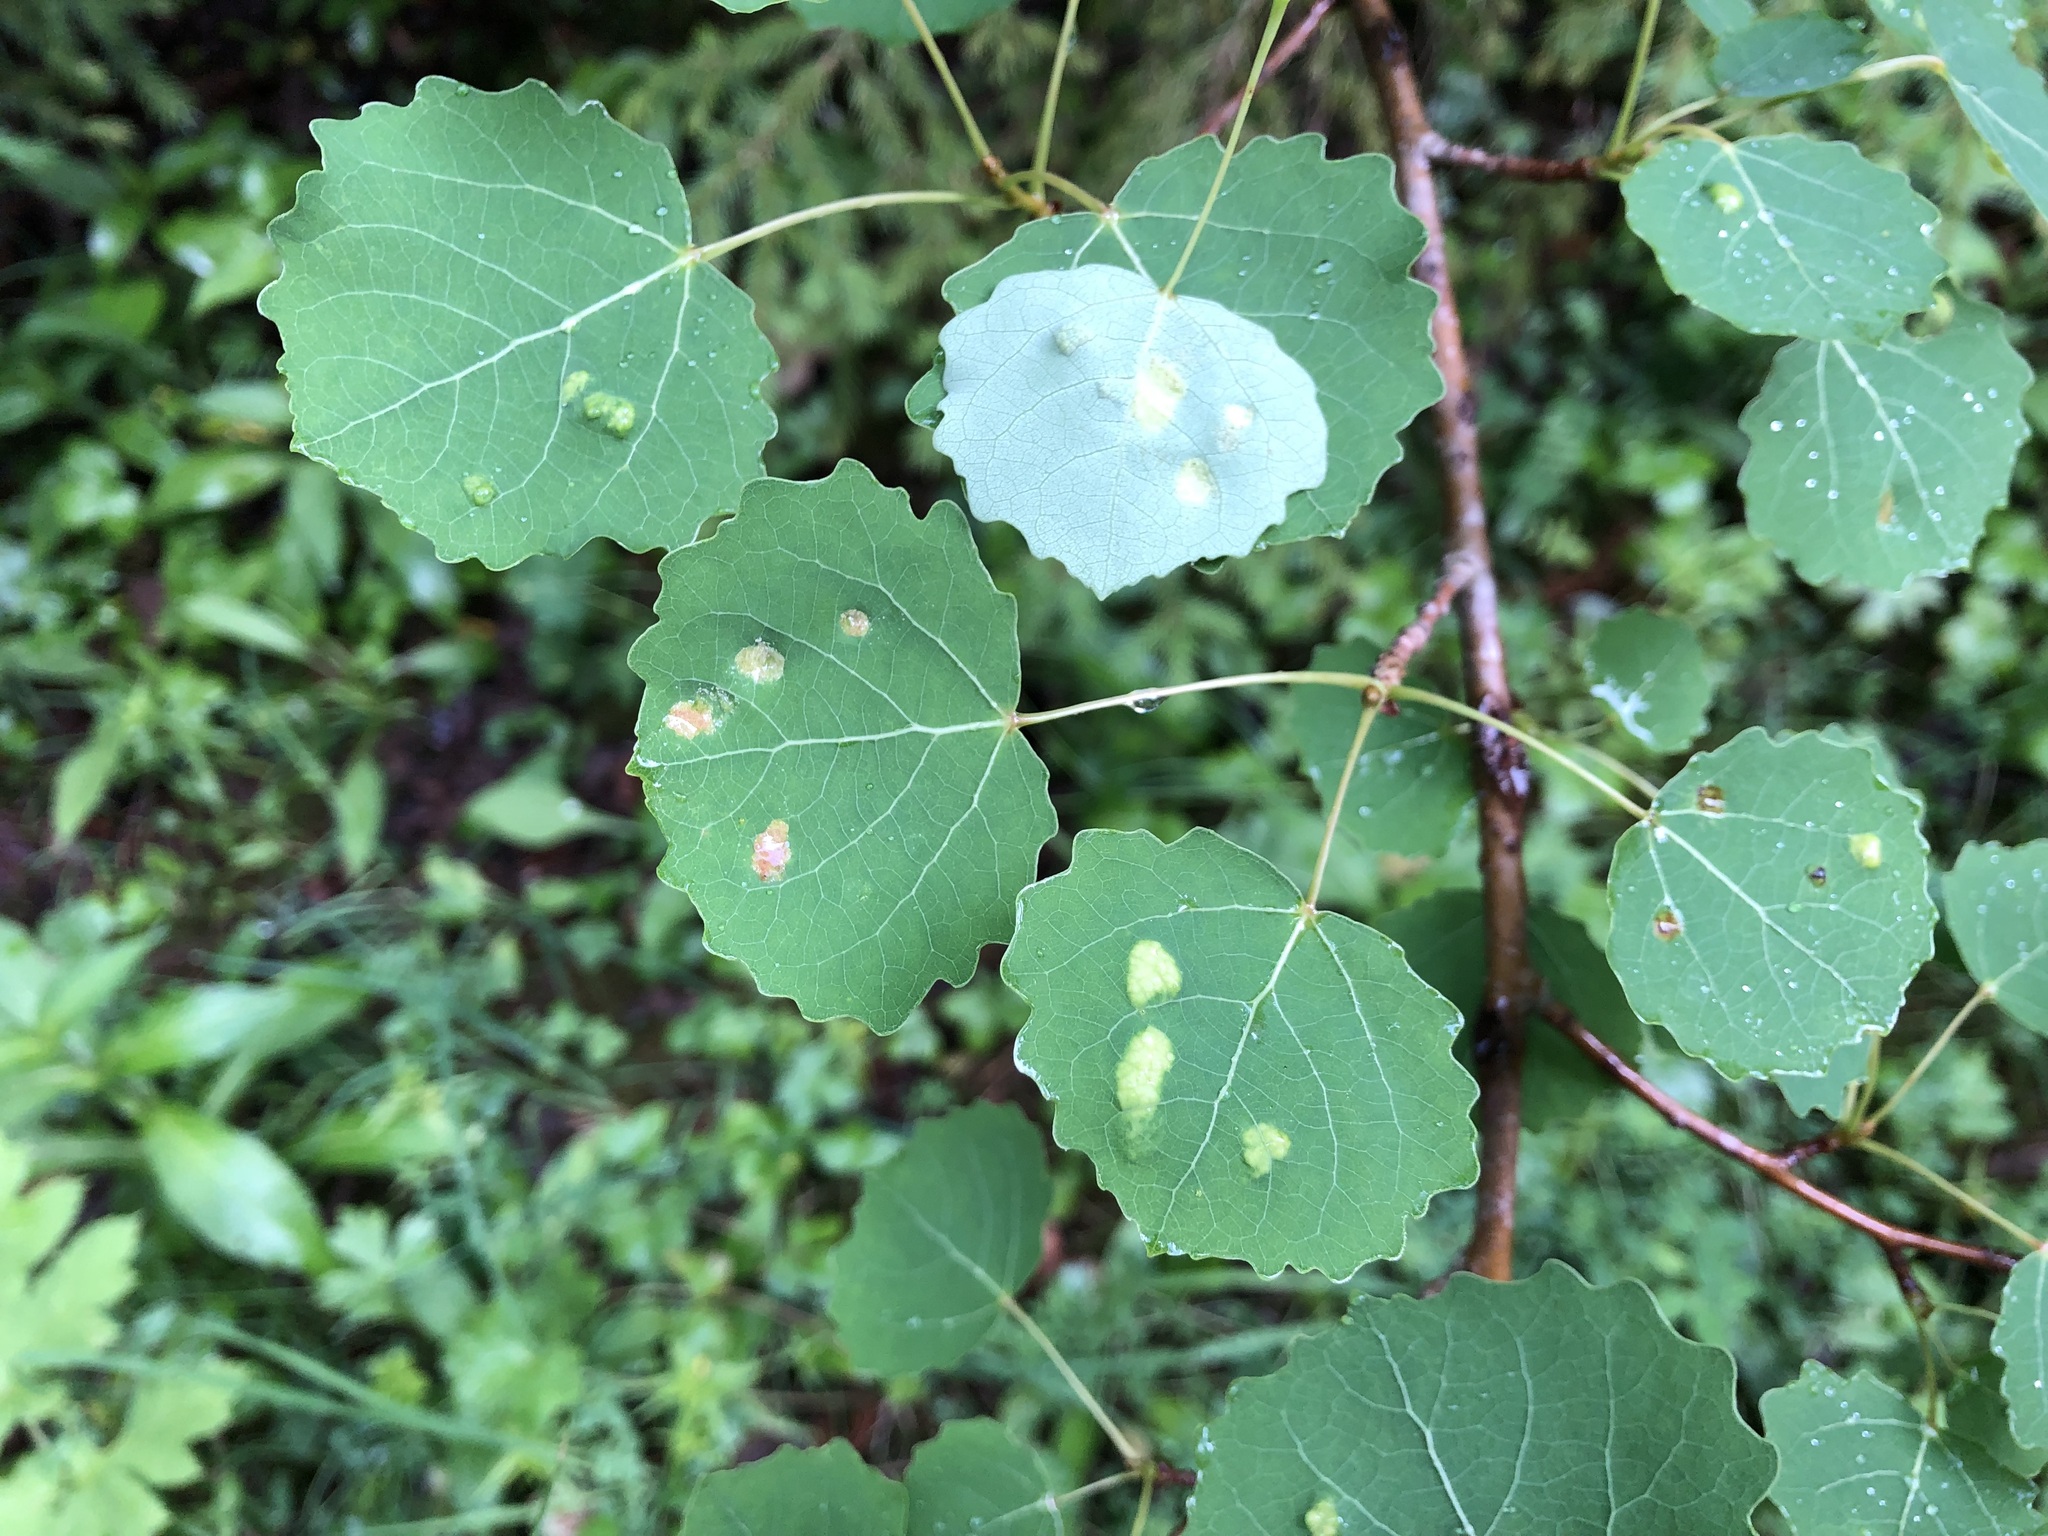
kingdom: Animalia
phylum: Arthropoda
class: Arachnida
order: Trombidiformes
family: Eriophyidae
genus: Phyllocoptes
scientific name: Phyllocoptes populi
